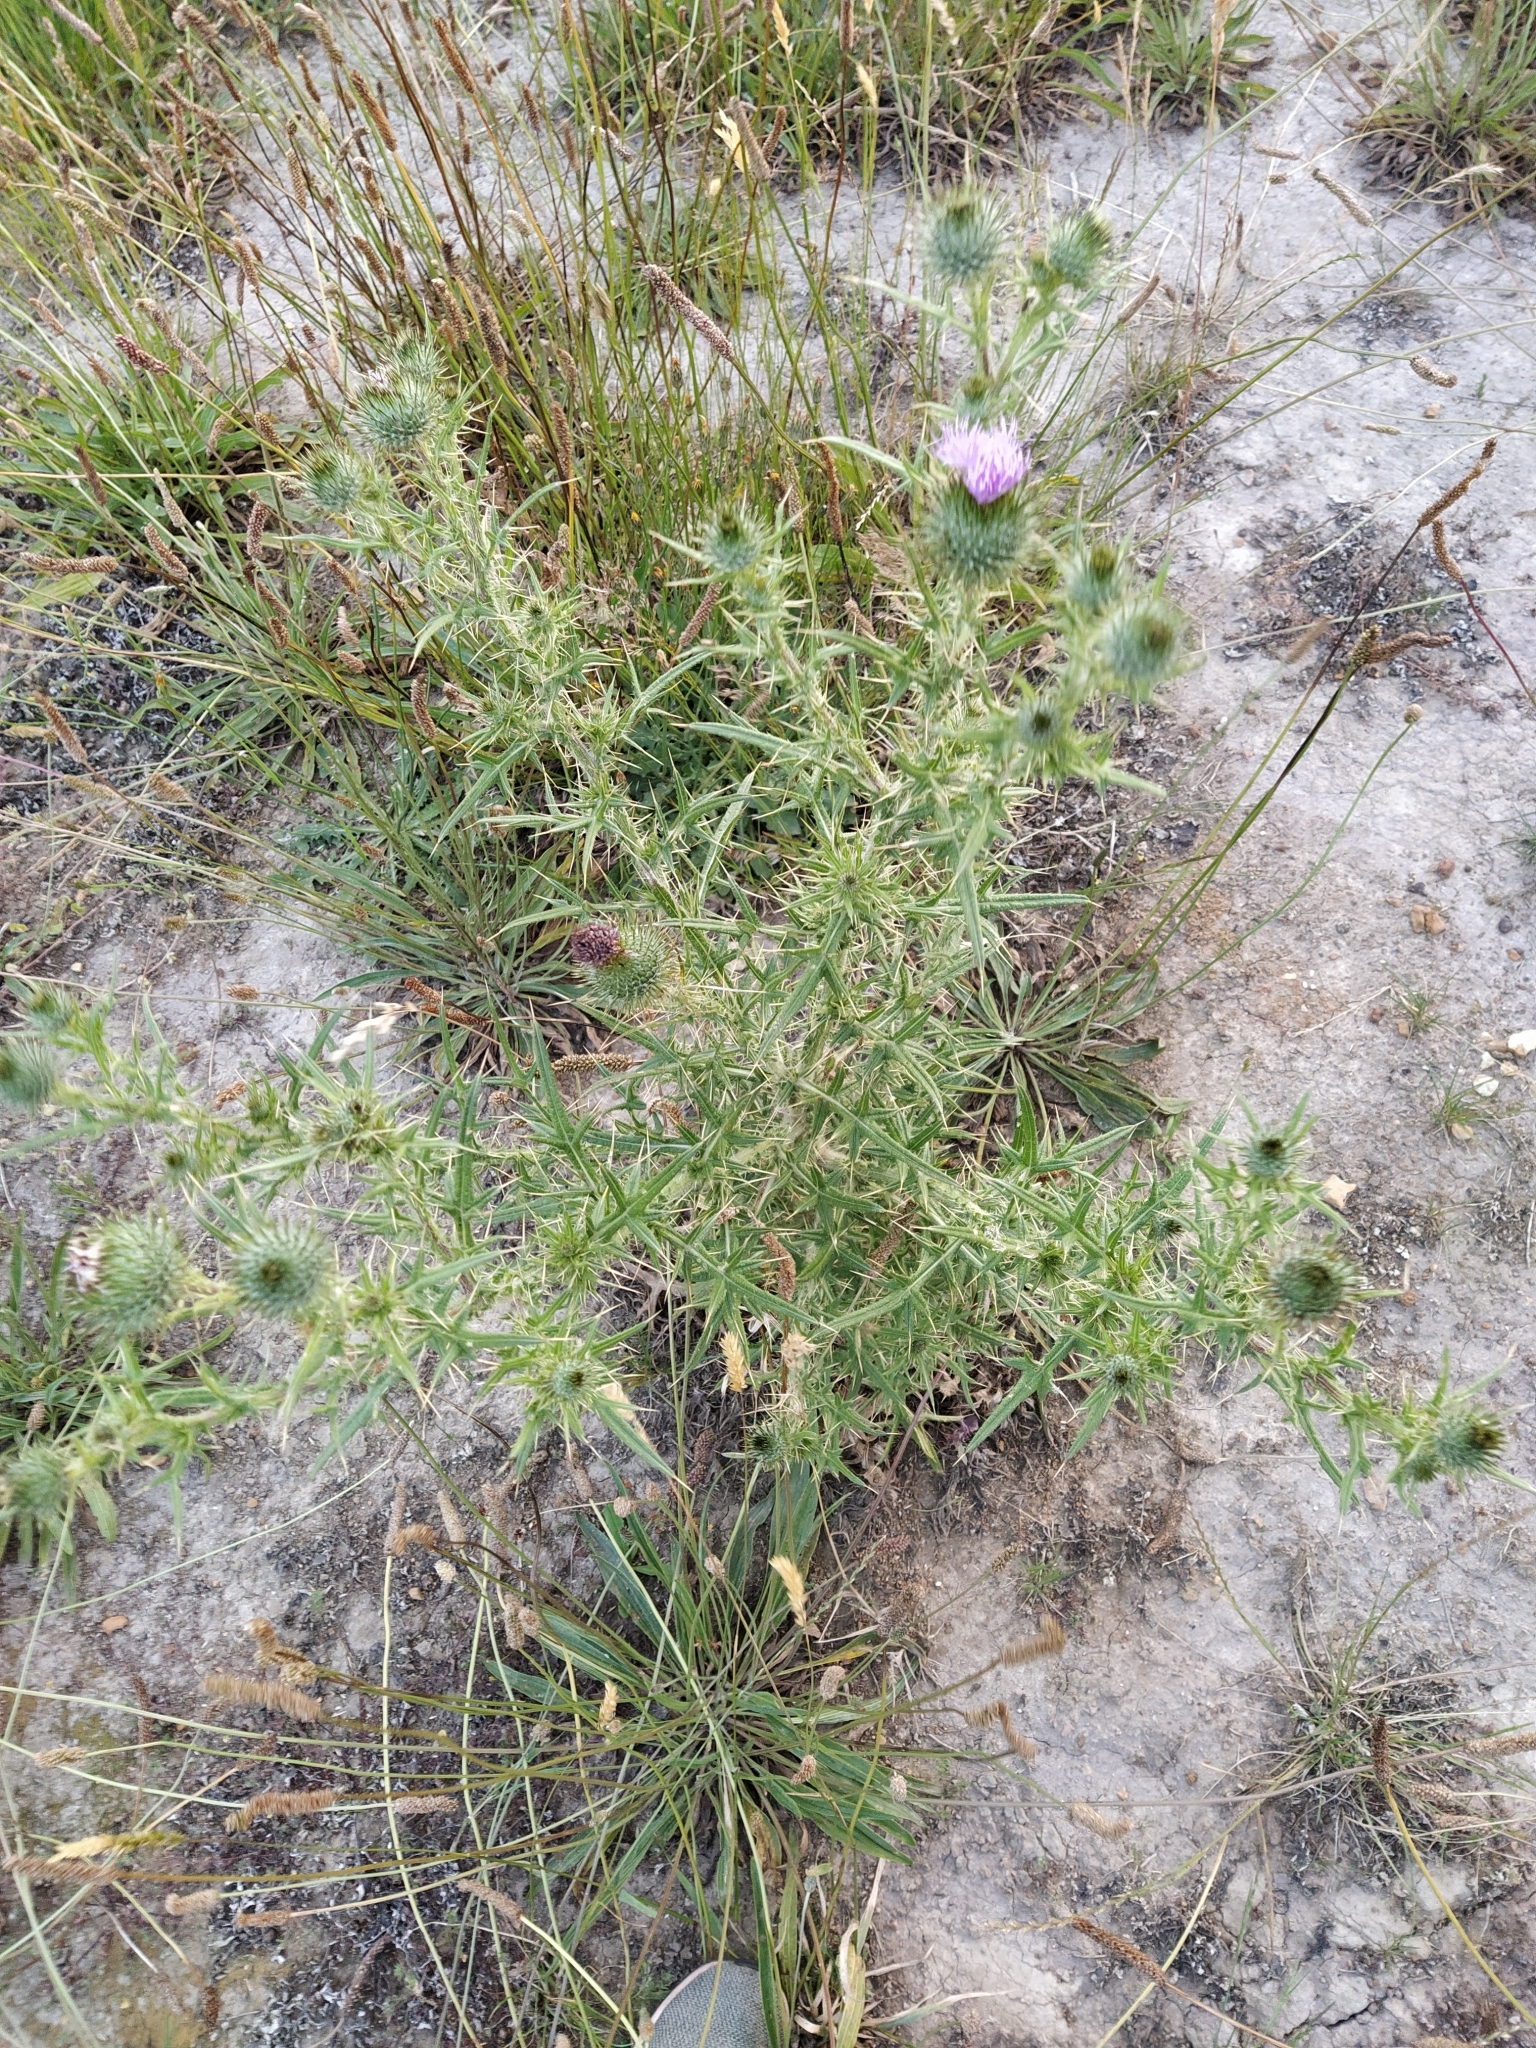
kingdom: Plantae
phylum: Tracheophyta
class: Magnoliopsida
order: Asterales
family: Asteraceae
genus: Cirsium
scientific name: Cirsium vulgare
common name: Bull thistle
